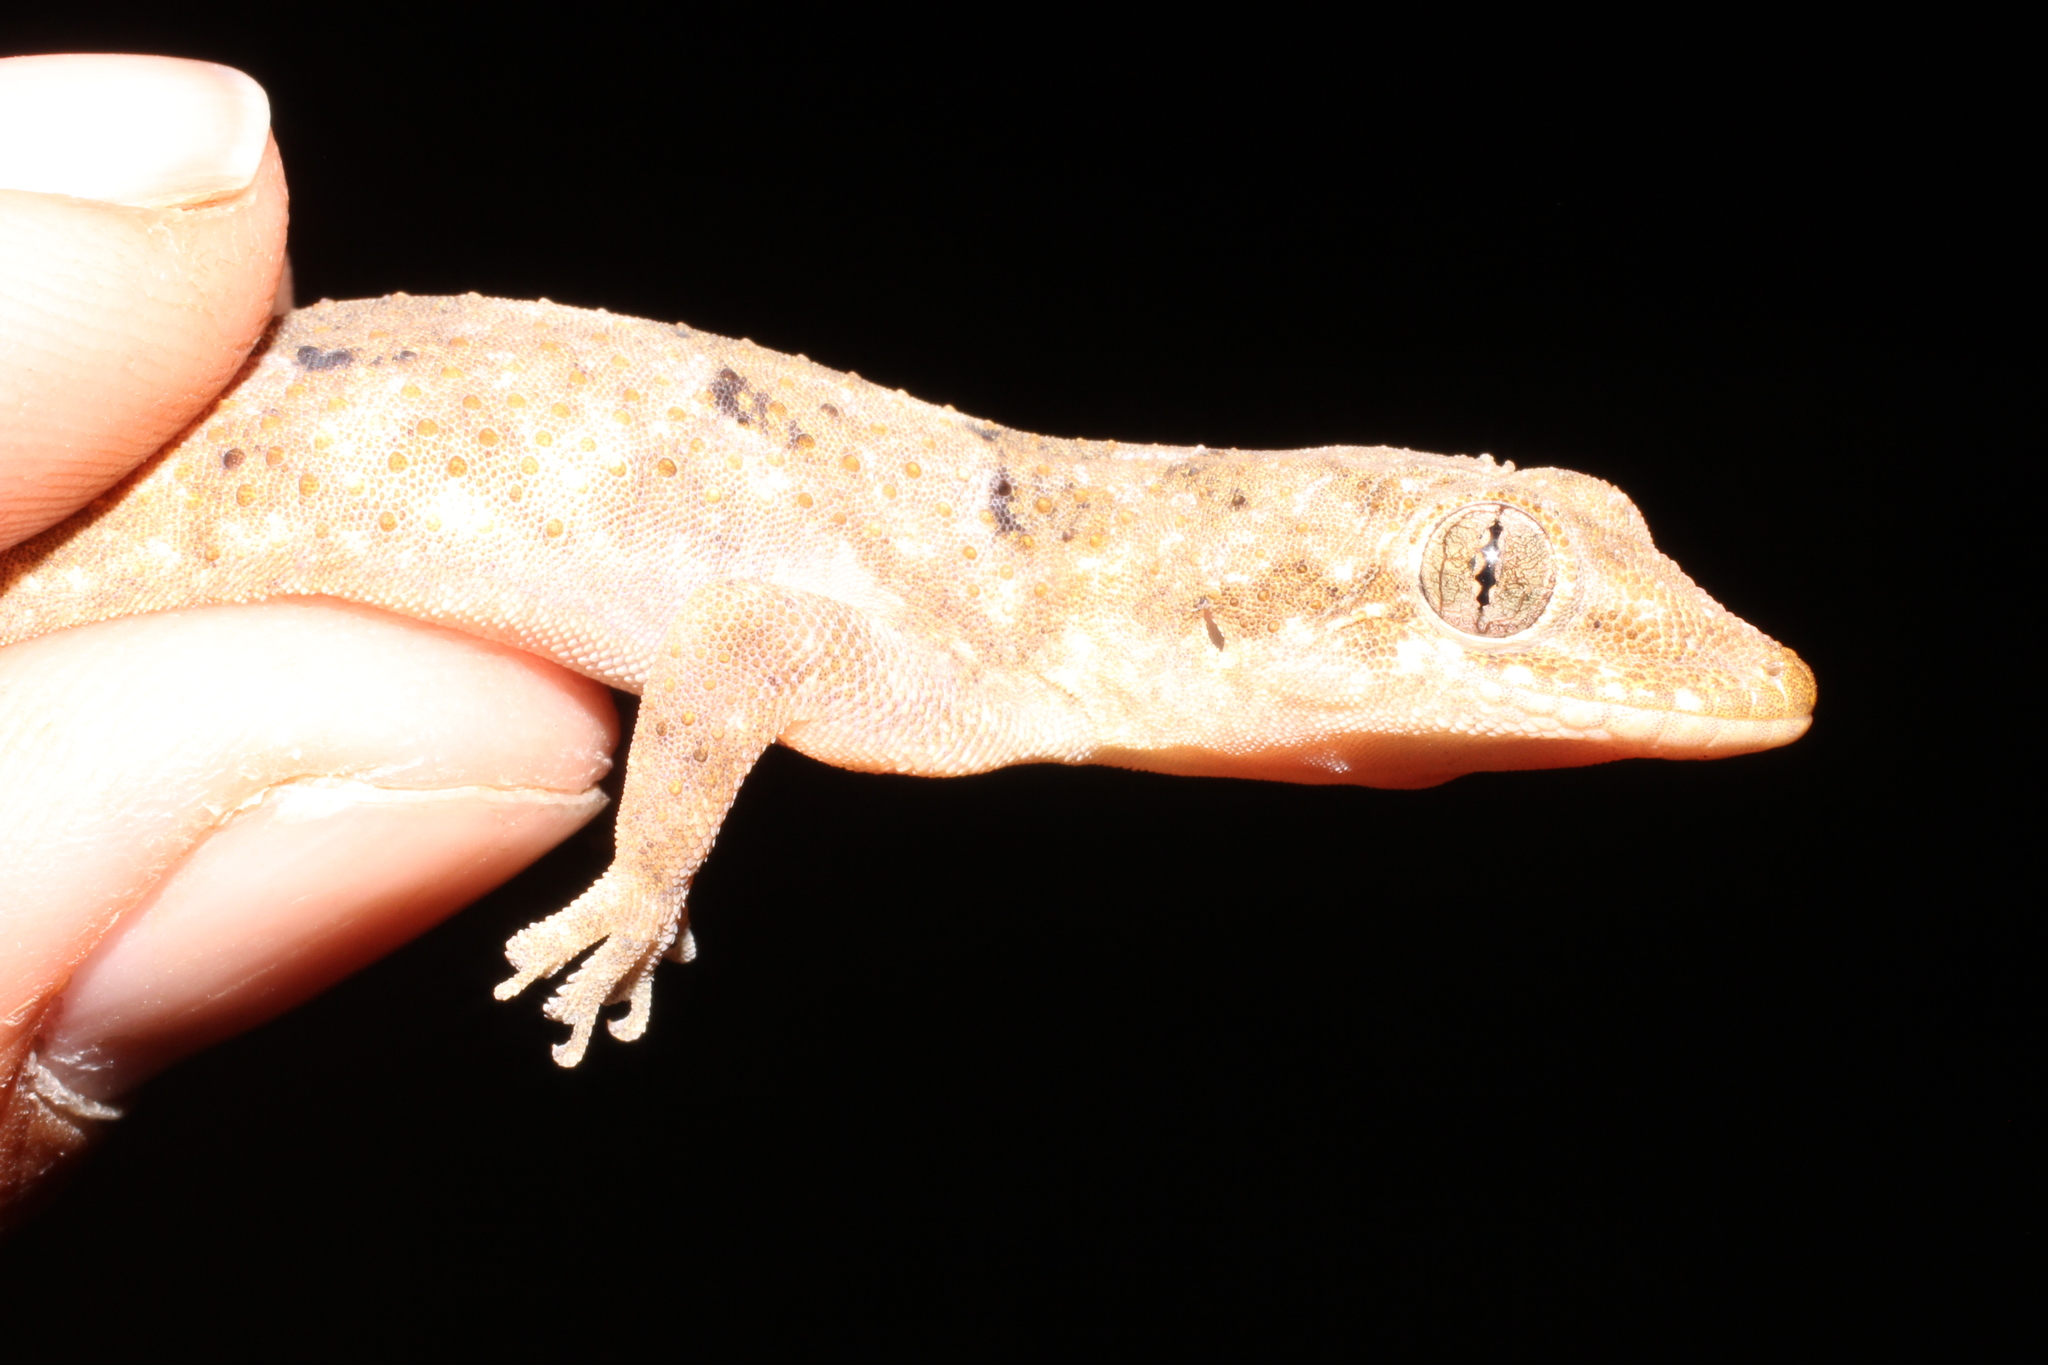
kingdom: Animalia
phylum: Chordata
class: Squamata
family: Gekkonidae
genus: Hemidactylus
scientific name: Hemidactylus mabouia
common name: House gecko
